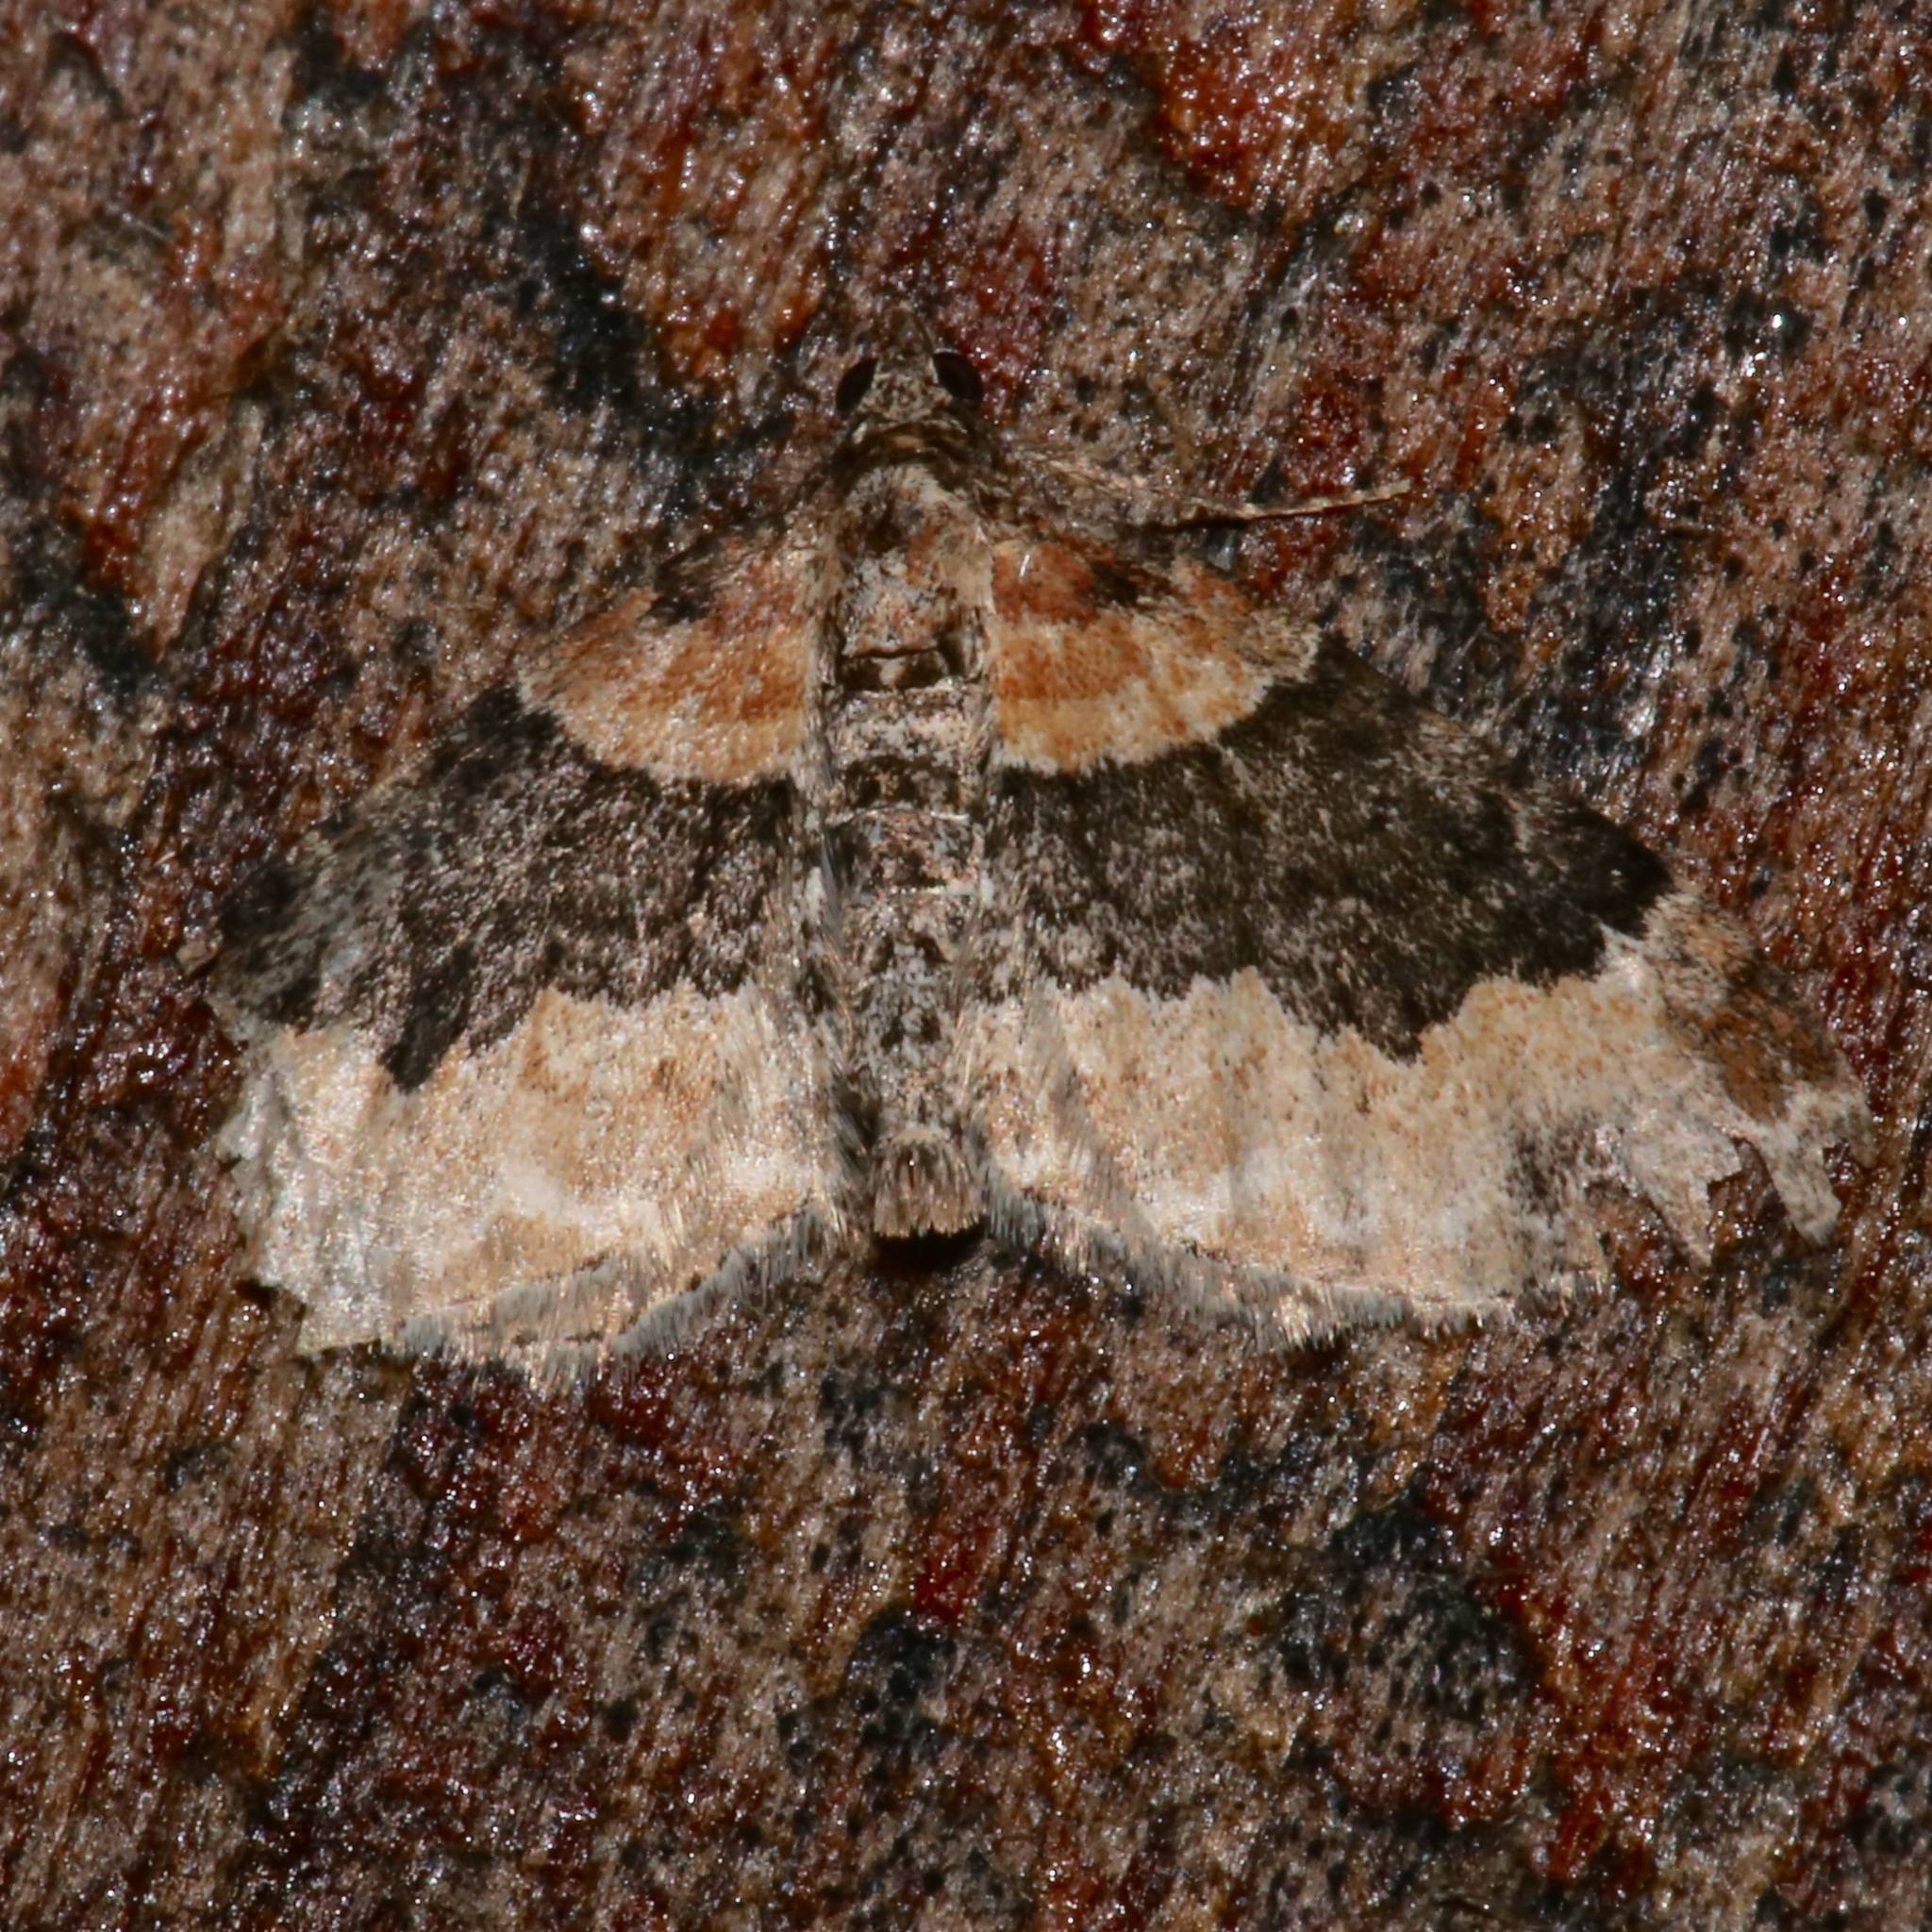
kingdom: Animalia
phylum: Arthropoda
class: Insecta
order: Lepidoptera
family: Geometridae
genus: Xanthorhoe
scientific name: Xanthorhoe ferrugata
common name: Dark-barred twin-spot carpet
